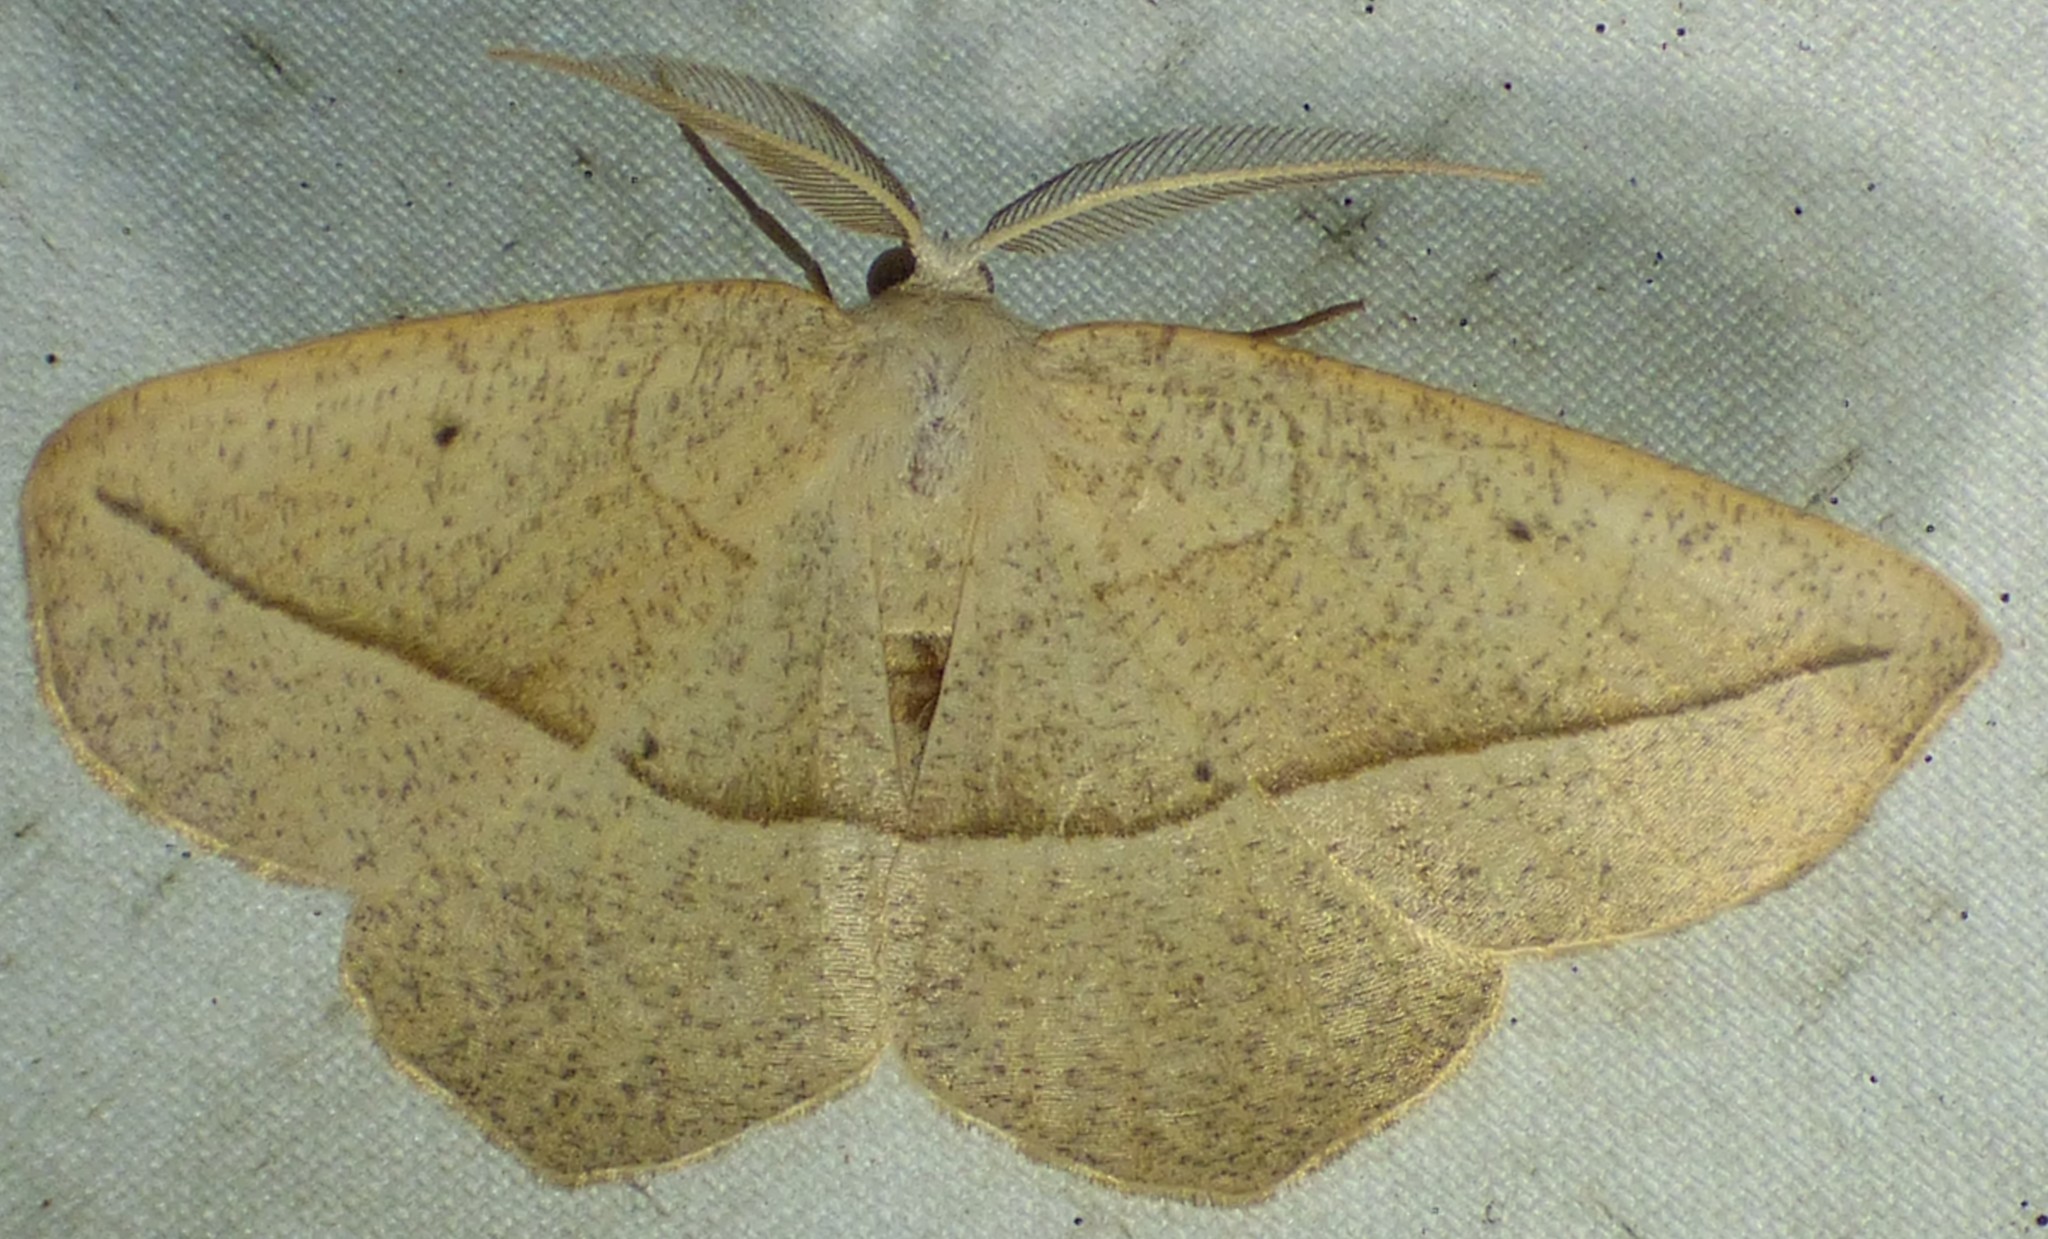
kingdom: Animalia
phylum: Arthropoda
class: Insecta
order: Lepidoptera
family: Geometridae
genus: Eusarca
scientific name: Eusarca confusaria
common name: Confused eusarca
